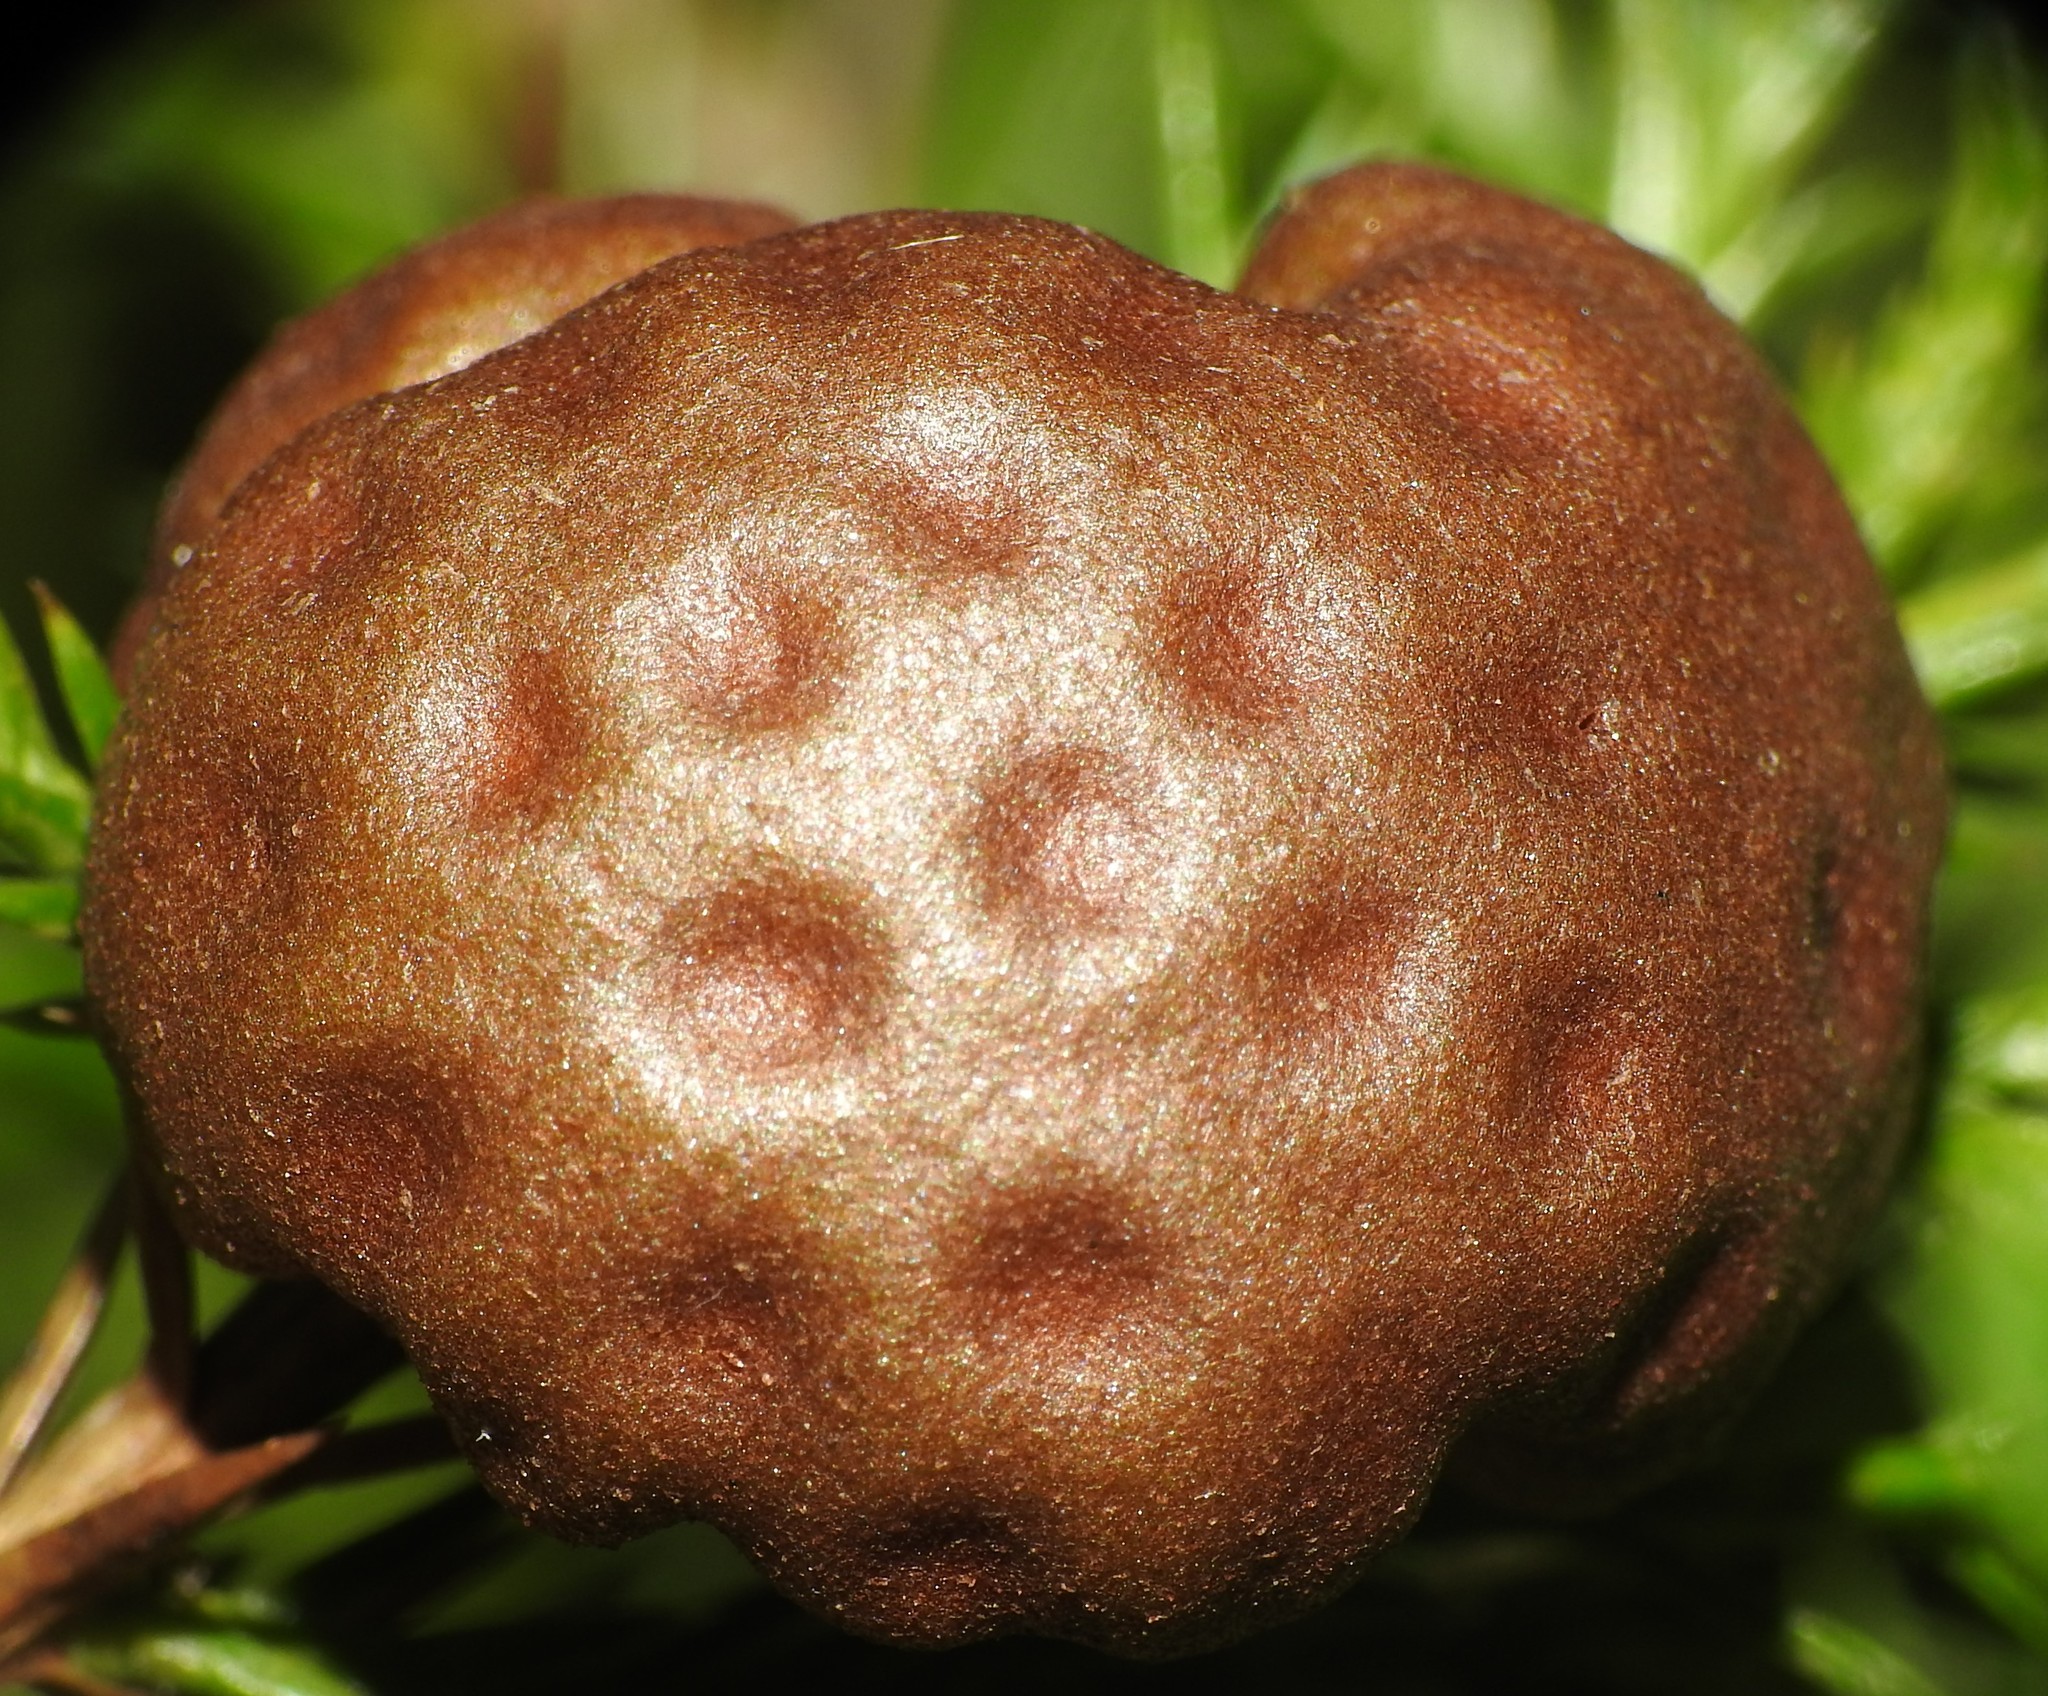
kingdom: Fungi
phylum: Basidiomycota
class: Pucciniomycetes
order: Pucciniales
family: Gymnosporangiaceae
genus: Gymnosporangium
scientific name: Gymnosporangium juniperi-virginianae
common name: Juniper-apple rust
